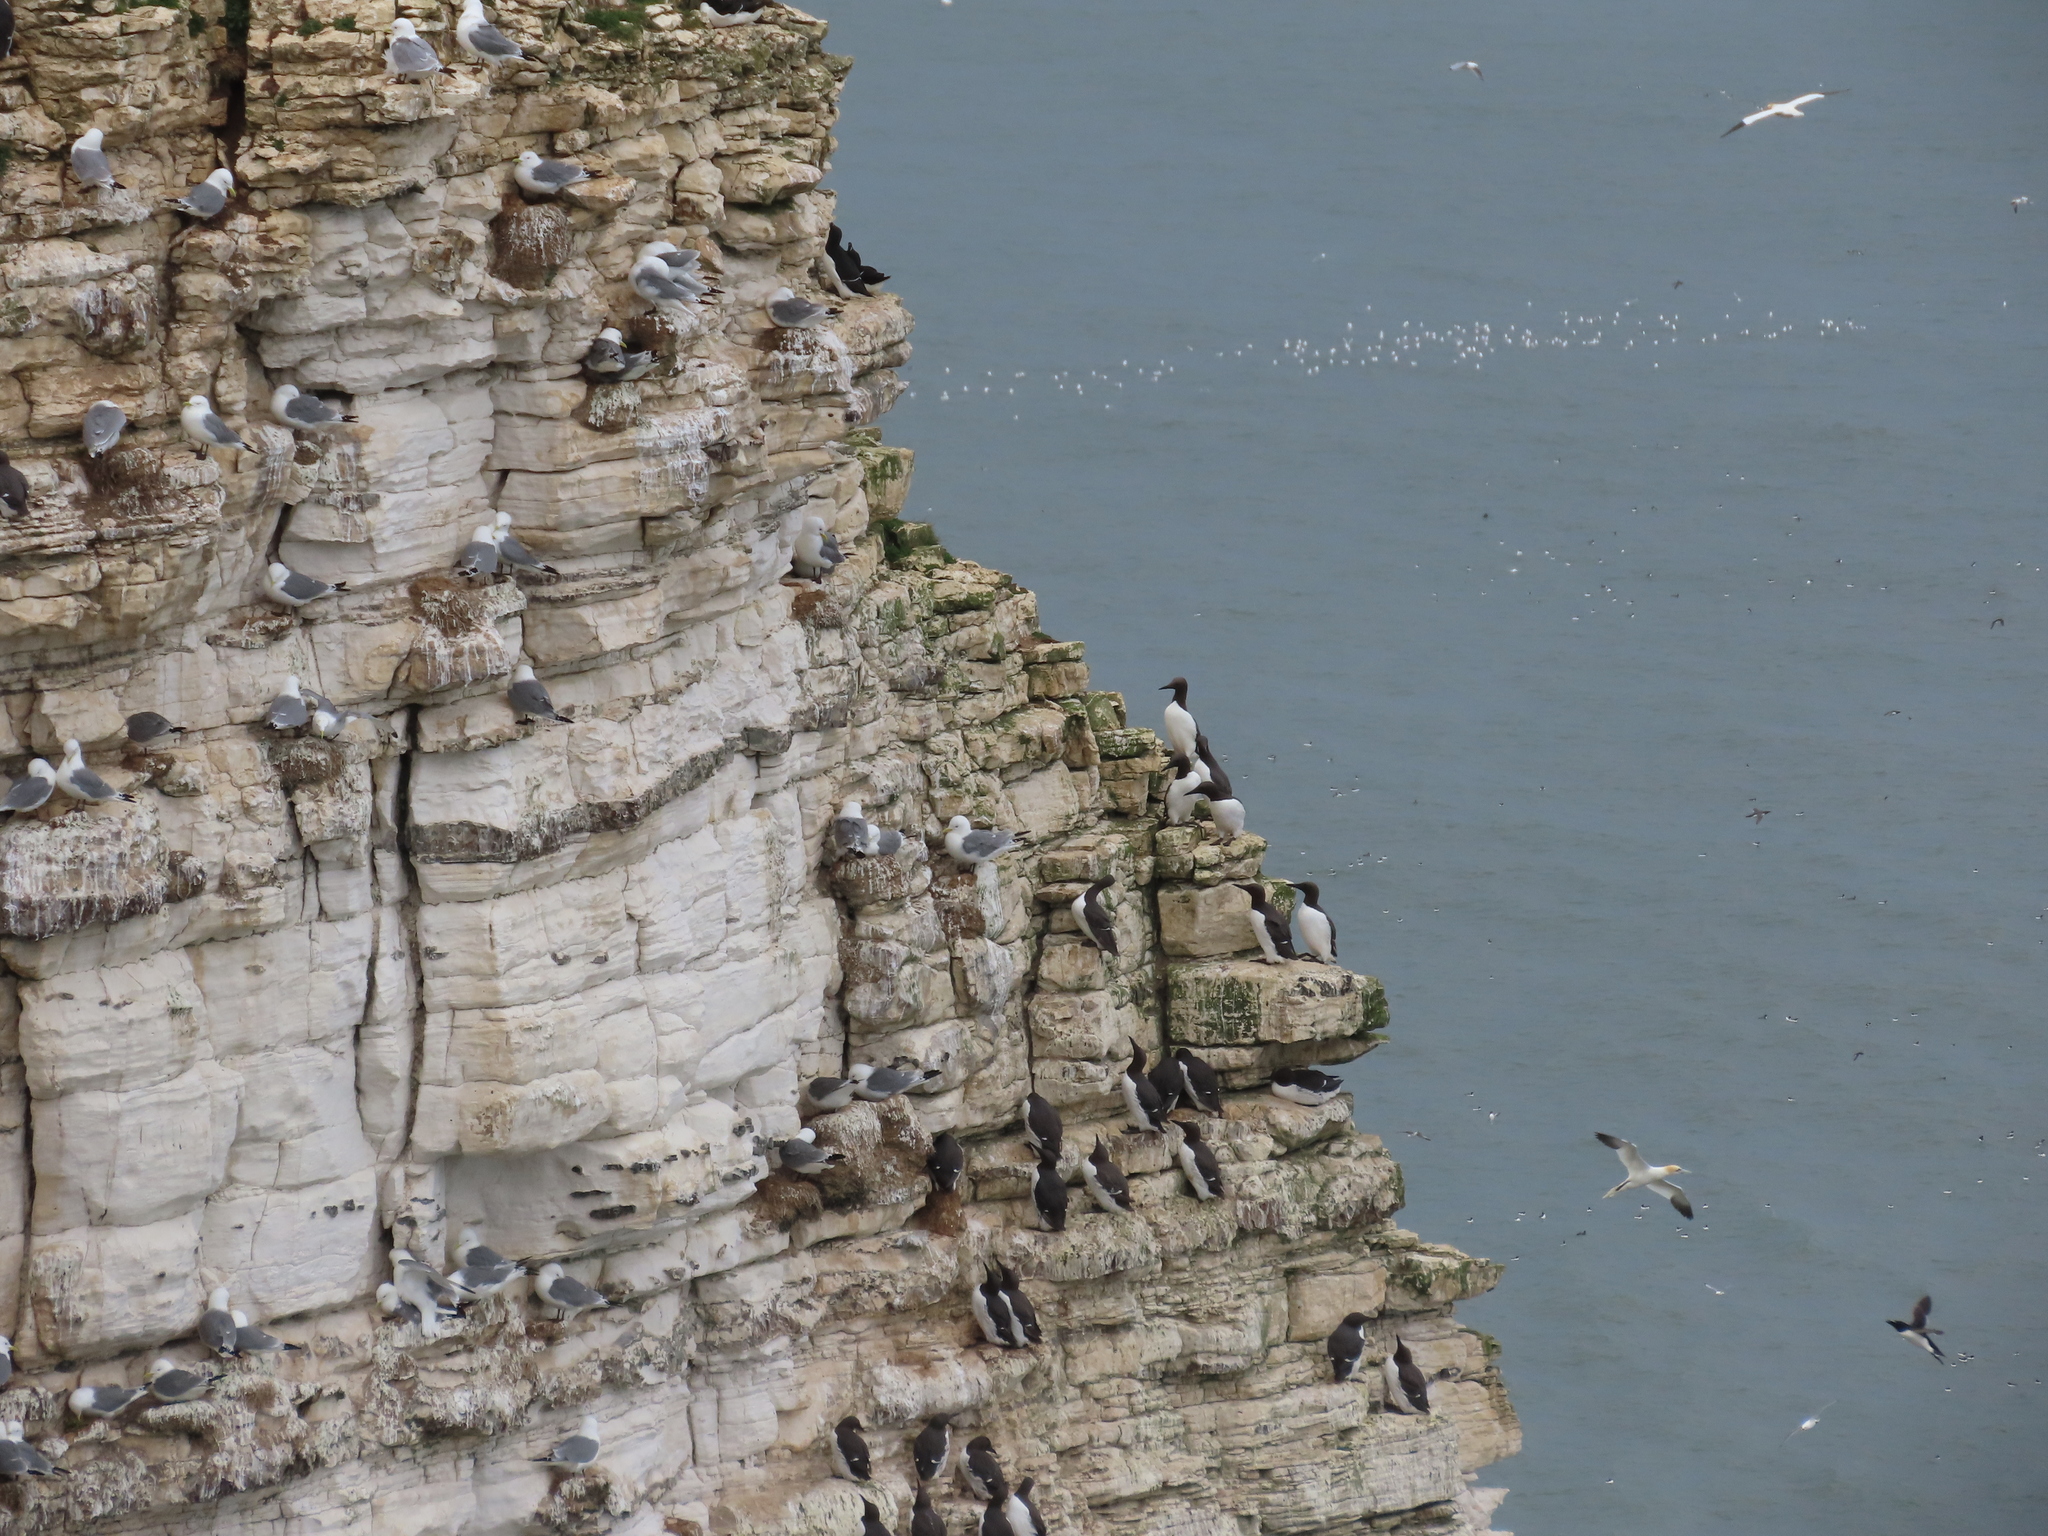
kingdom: Animalia
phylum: Chordata
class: Aves
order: Charadriiformes
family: Alcidae
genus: Uria
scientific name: Uria aalge
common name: Common murre
